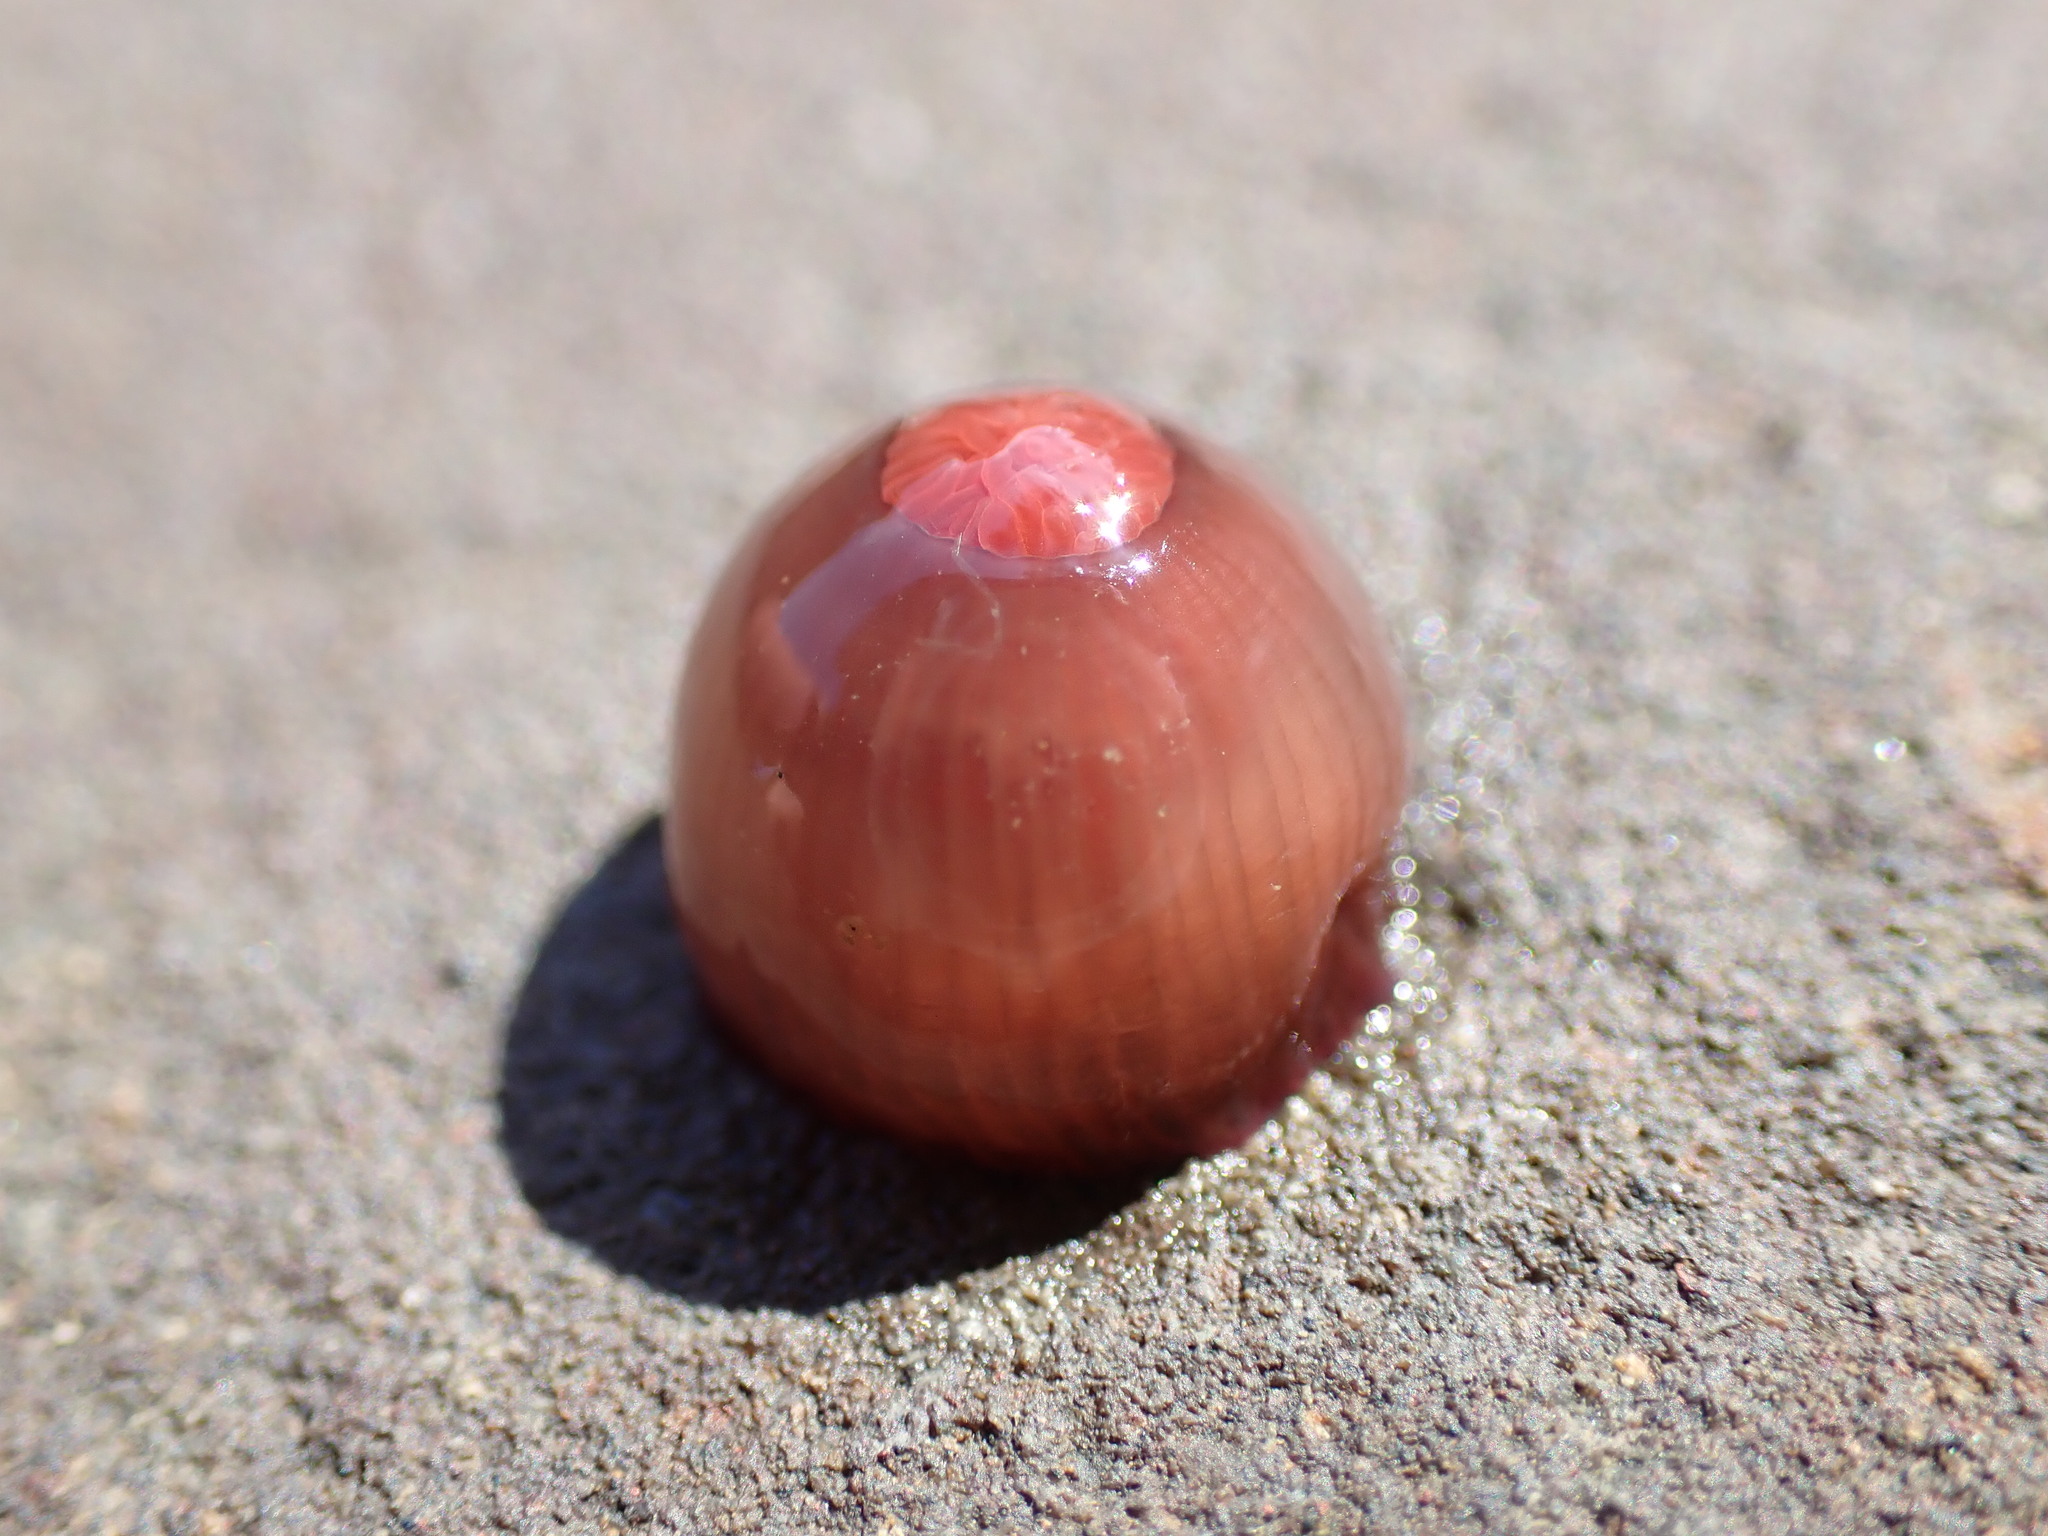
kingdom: Animalia
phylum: Cnidaria
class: Anthozoa
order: Actiniaria
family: Actiniidae
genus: Actinia
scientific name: Actinia tenebrosa
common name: Waratah anemone
